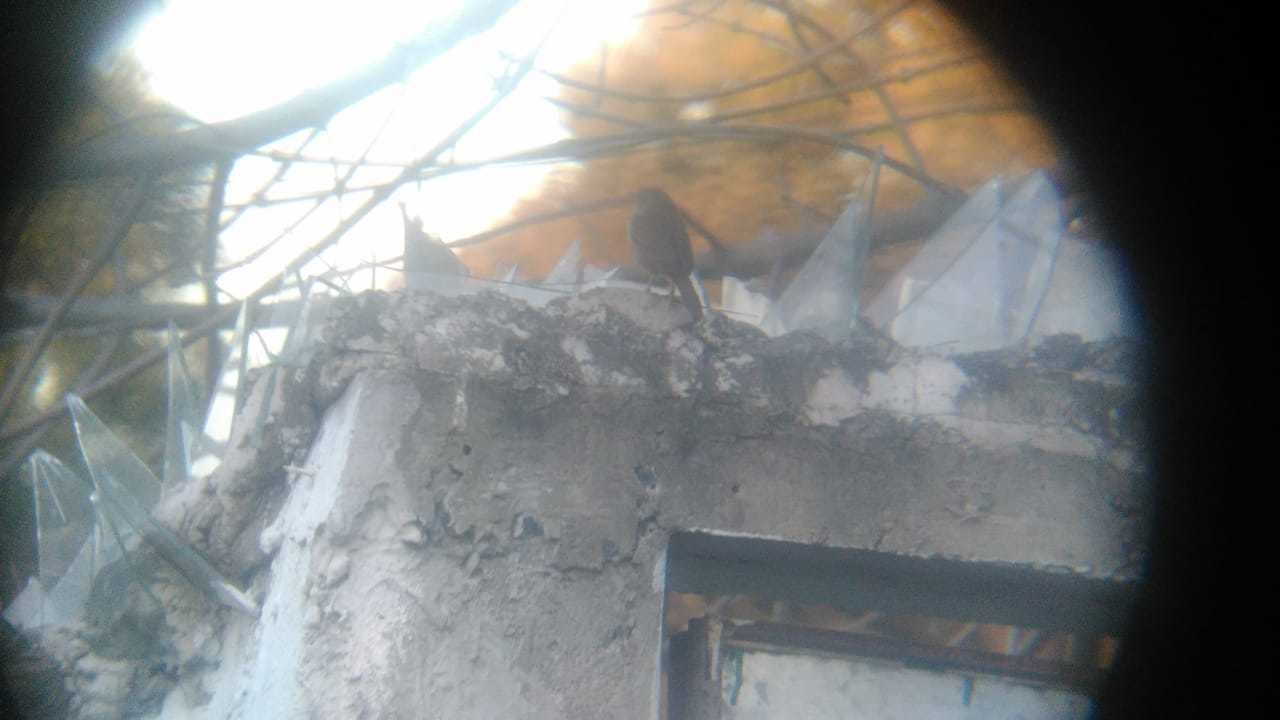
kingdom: Animalia
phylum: Chordata
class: Aves
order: Passeriformes
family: Troglodytidae
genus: Troglodytes
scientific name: Troglodytes aedon
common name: House wren
